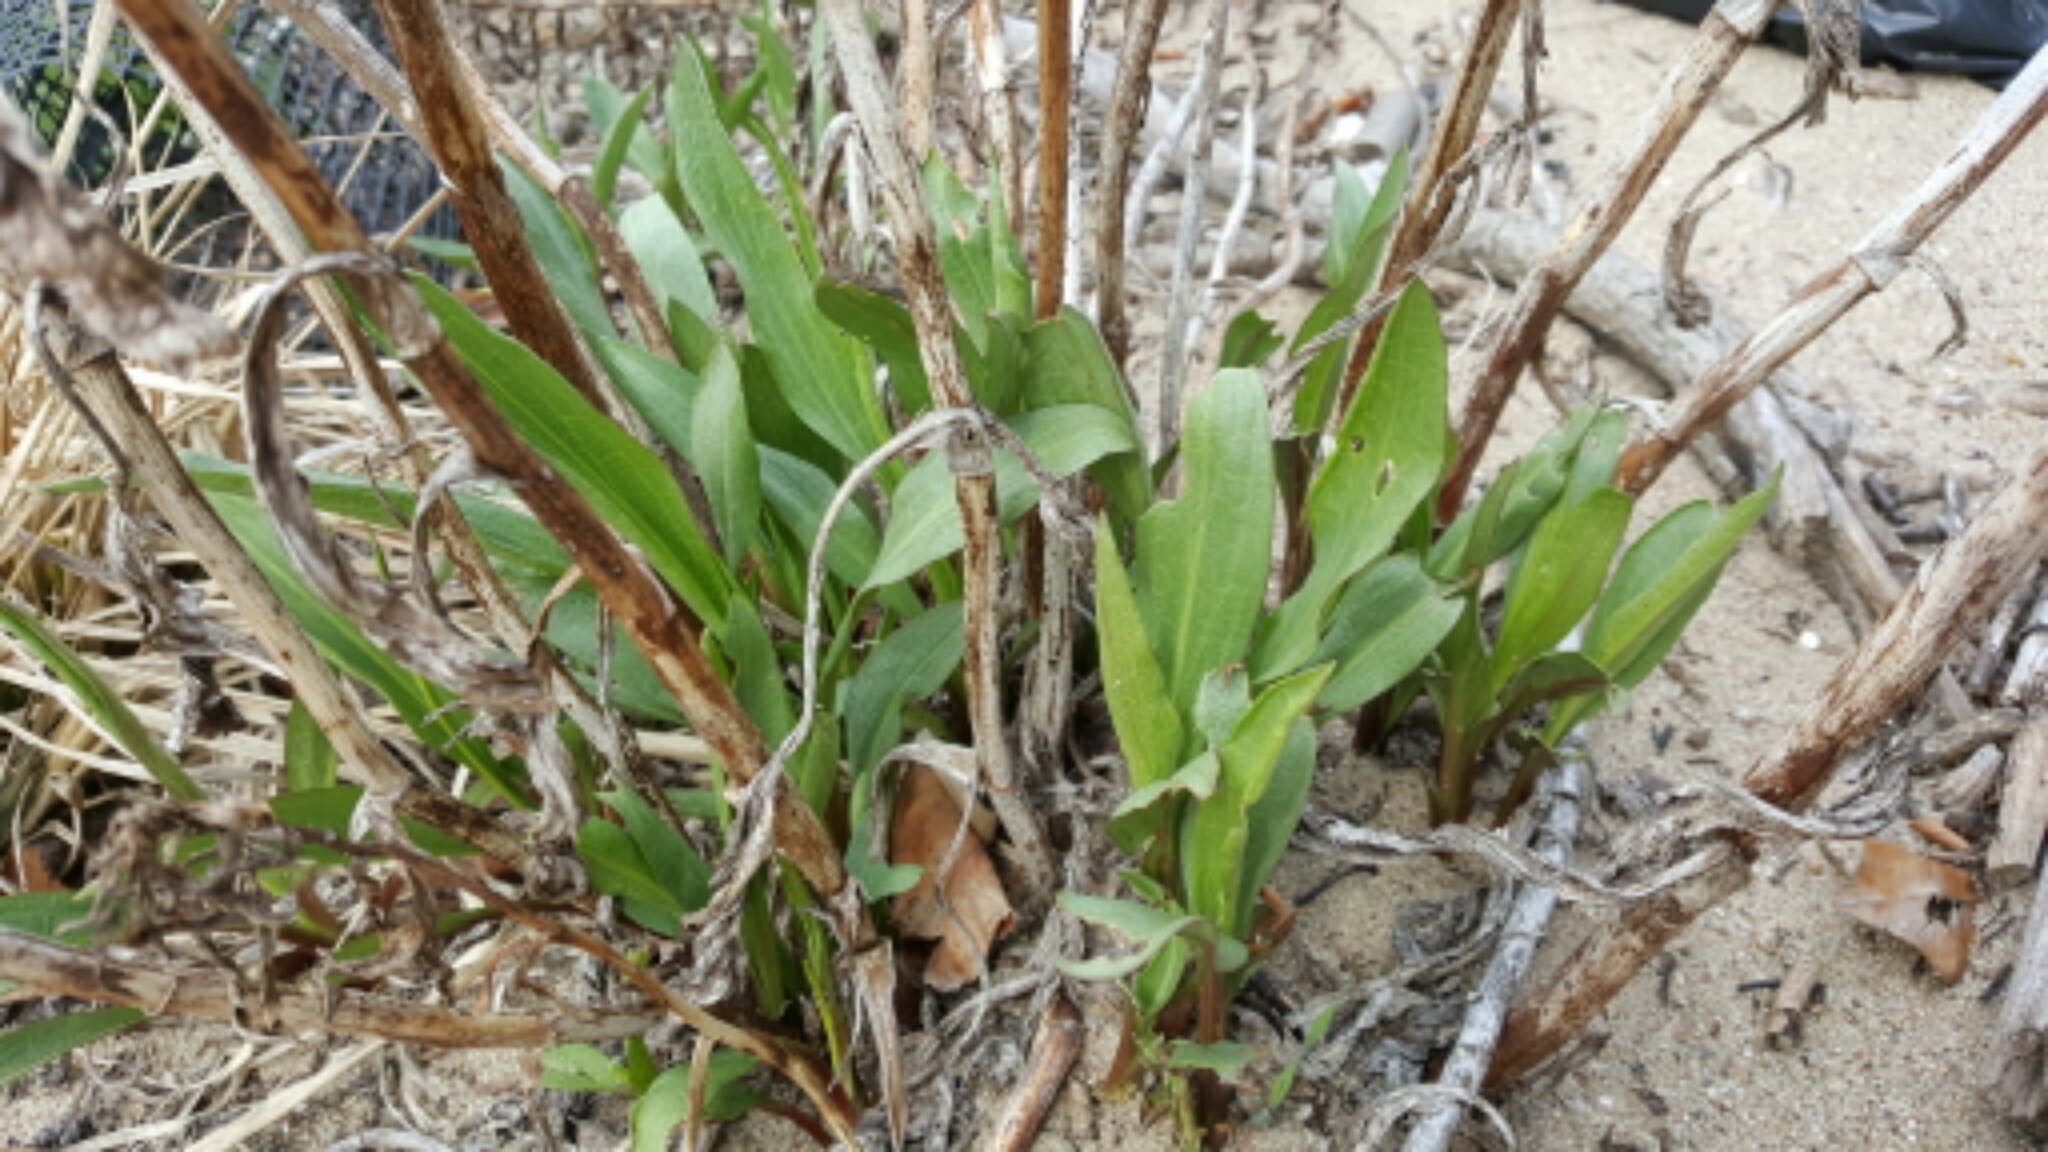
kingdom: Plantae
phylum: Tracheophyta
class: Magnoliopsida
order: Asterales
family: Asteraceae
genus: Solidago
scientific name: Solidago sempervirens
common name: Salt-marsh goldenrod
